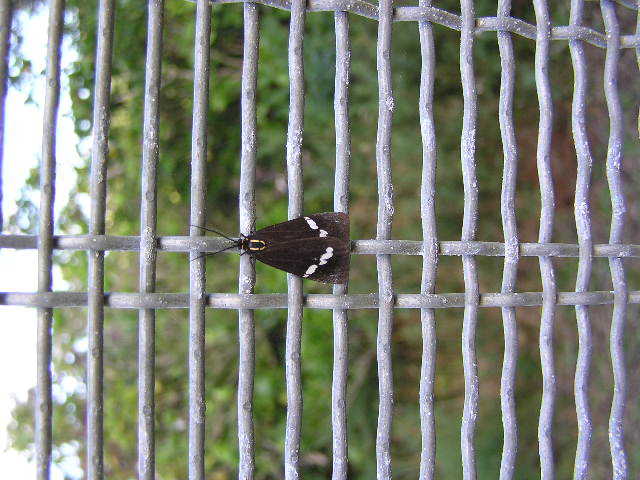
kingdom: Animalia
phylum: Arthropoda
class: Insecta
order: Lepidoptera
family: Erebidae
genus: Nyctemera
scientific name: Nyctemera annulatum
